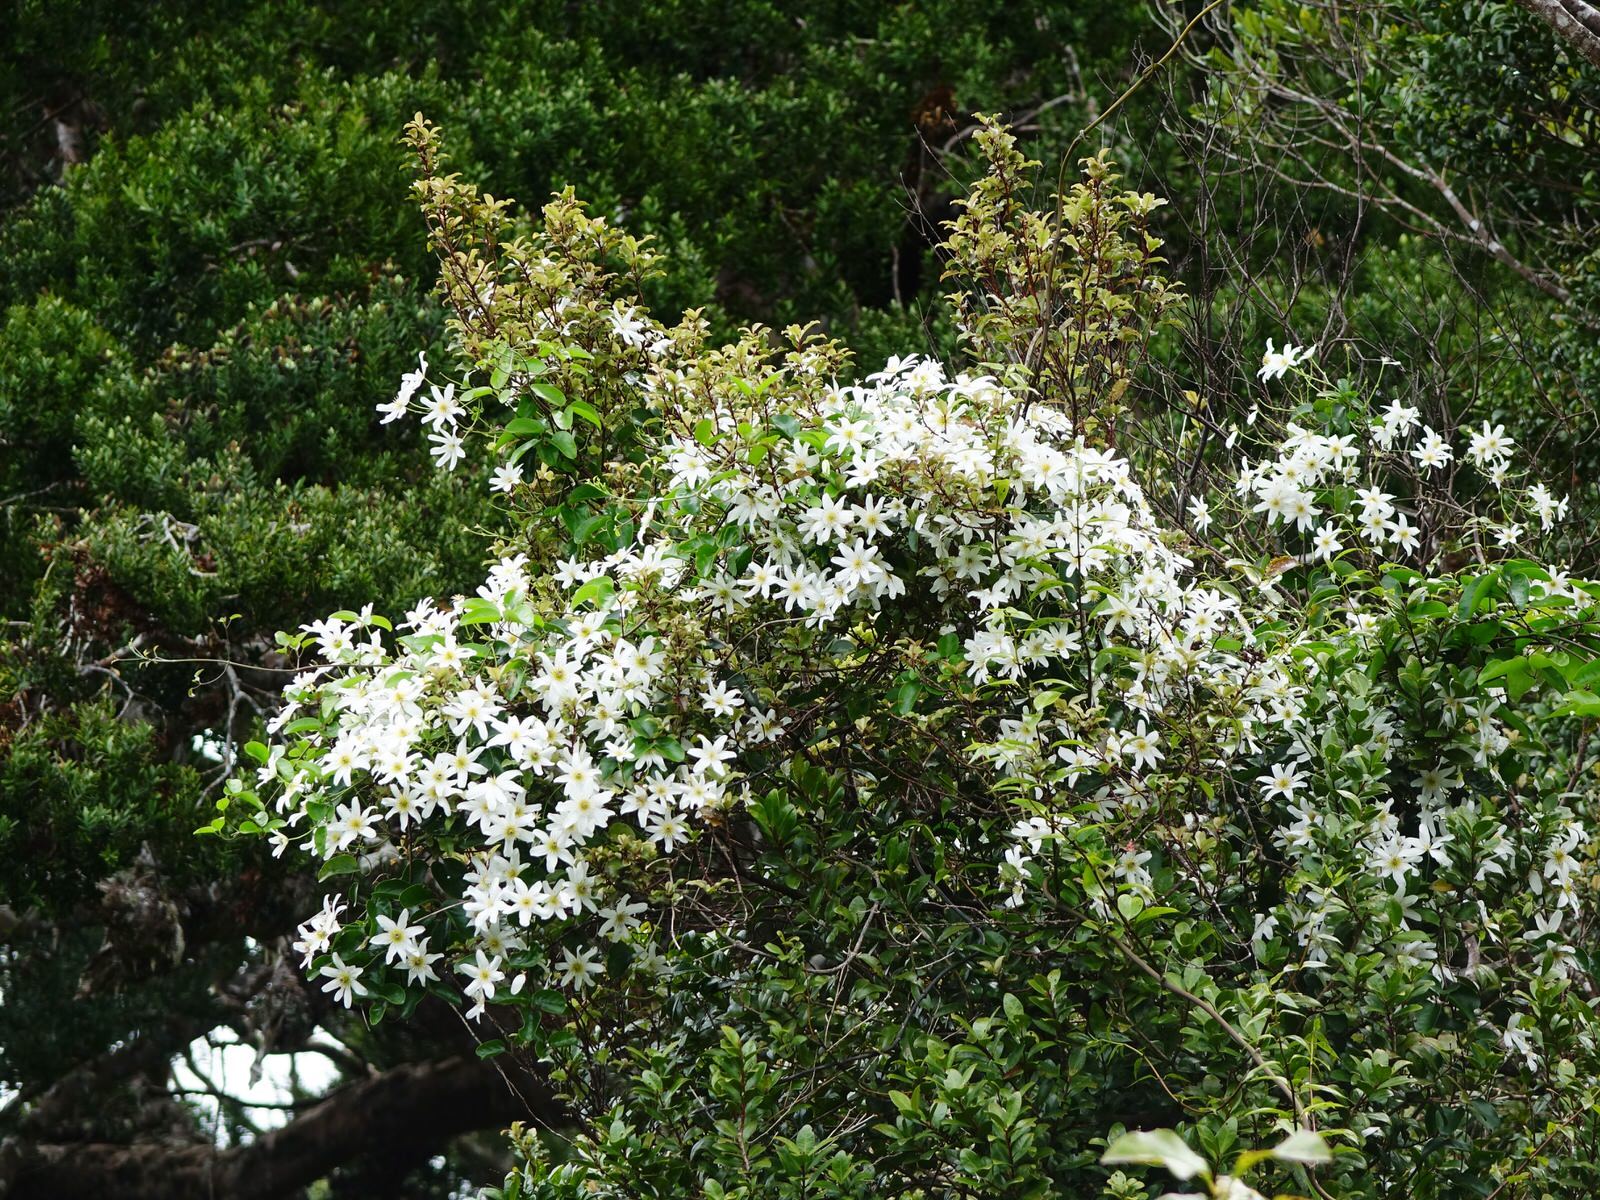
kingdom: Plantae
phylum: Tracheophyta
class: Magnoliopsida
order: Ranunculales
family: Ranunculaceae
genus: Clematis
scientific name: Clematis paniculata
